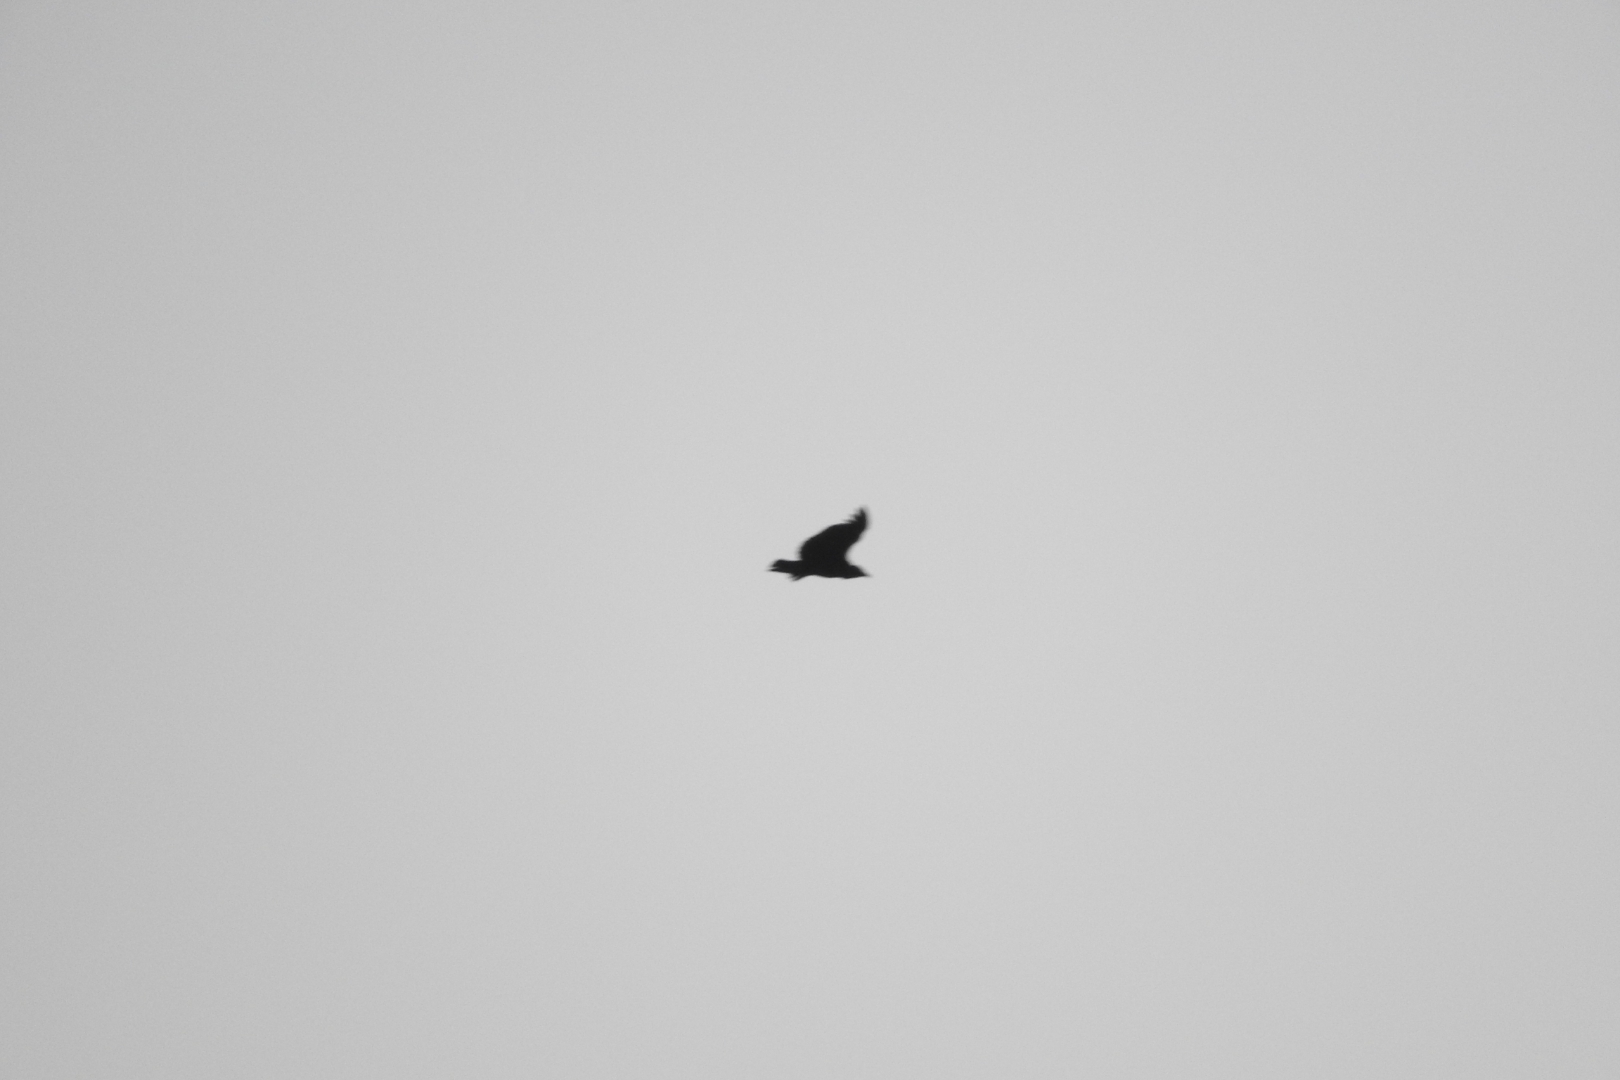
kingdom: Animalia
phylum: Chordata
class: Aves
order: Accipitriformes
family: Cathartidae
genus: Coragyps
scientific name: Coragyps atratus
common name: Black vulture
